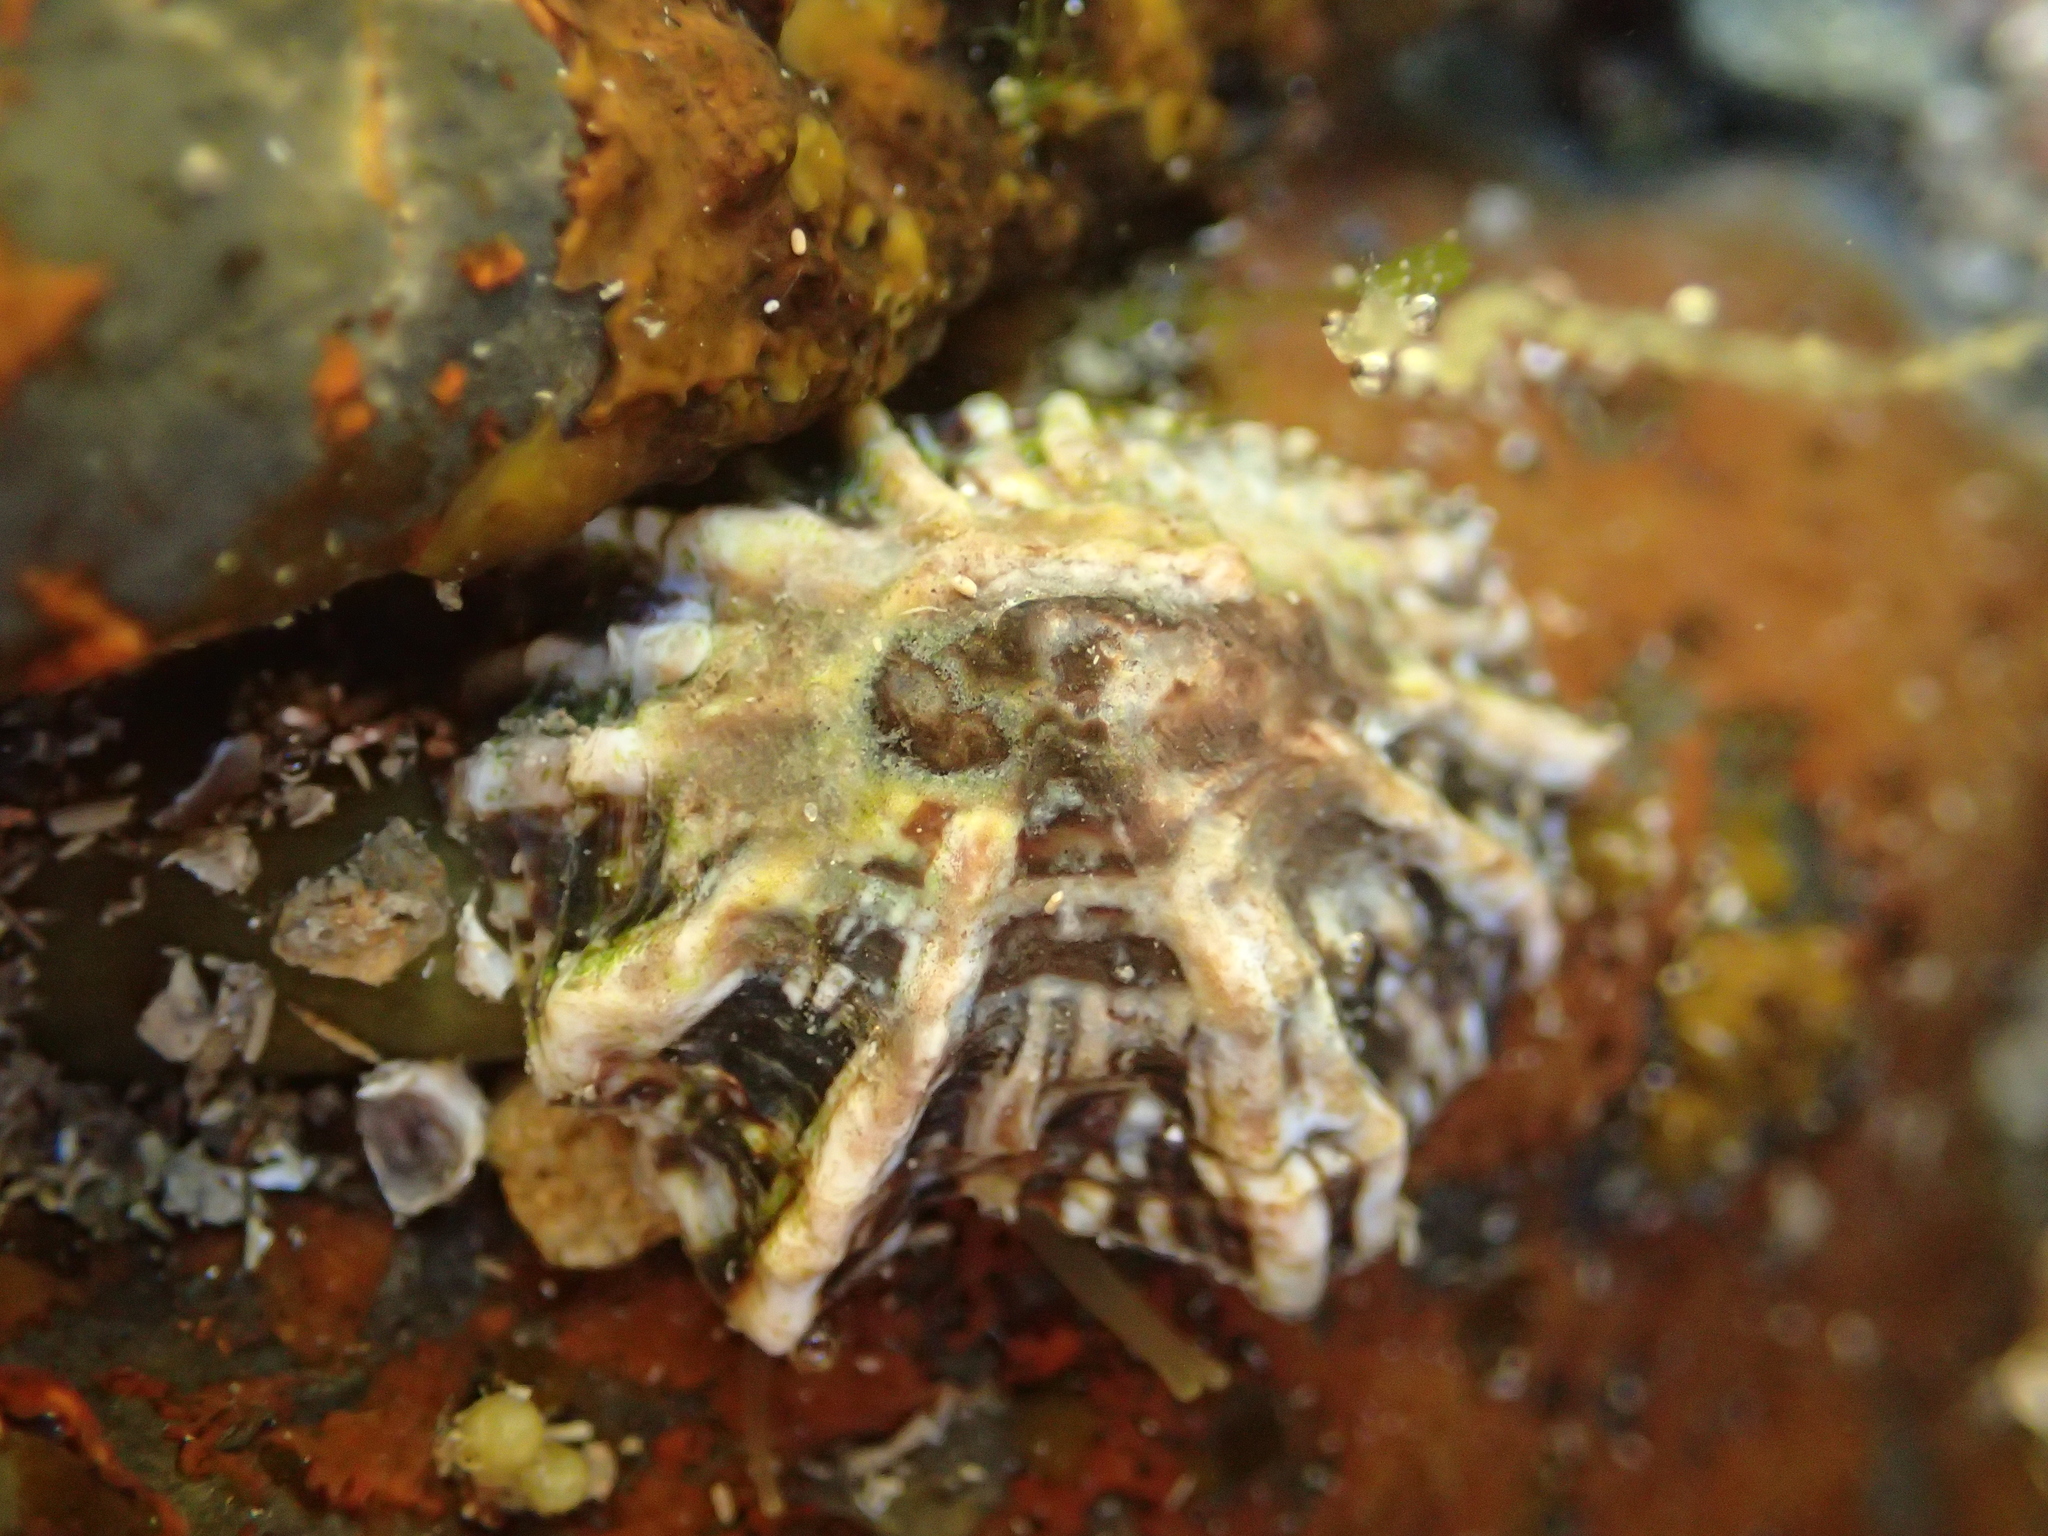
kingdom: Animalia
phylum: Mollusca
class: Gastropoda
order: Siphonariida
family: Siphonariidae
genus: Siphonaria
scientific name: Siphonaria australis
